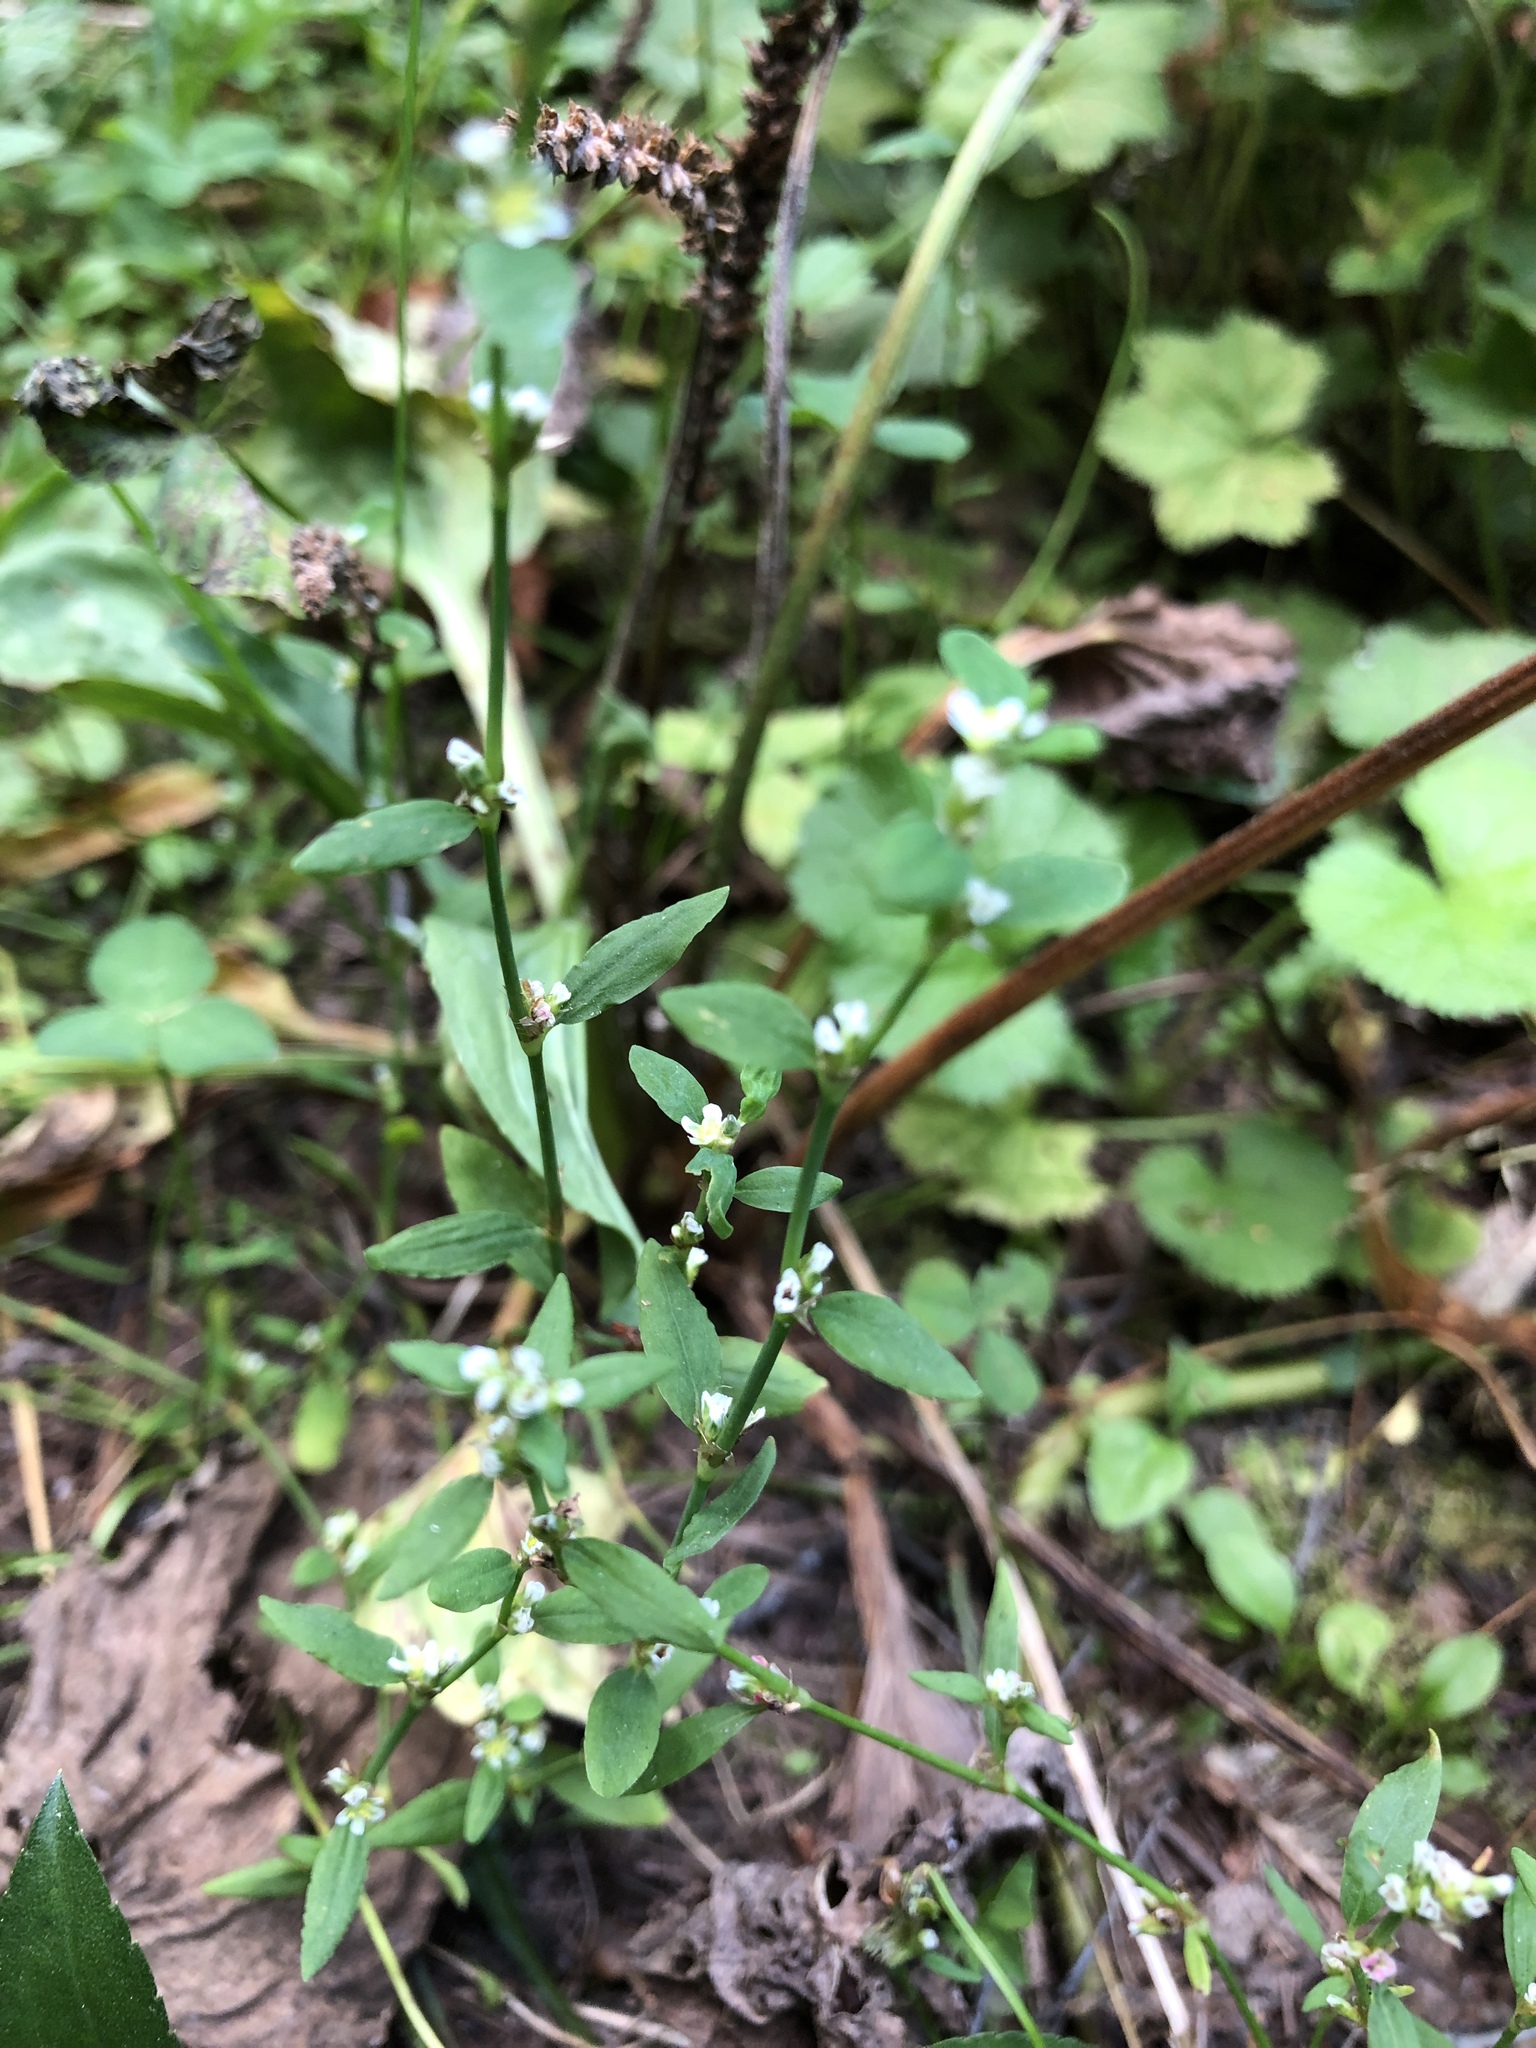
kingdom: Plantae
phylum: Tracheophyta
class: Magnoliopsida
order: Caryophyllales
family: Polygonaceae
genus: Polygonum
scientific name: Polygonum
